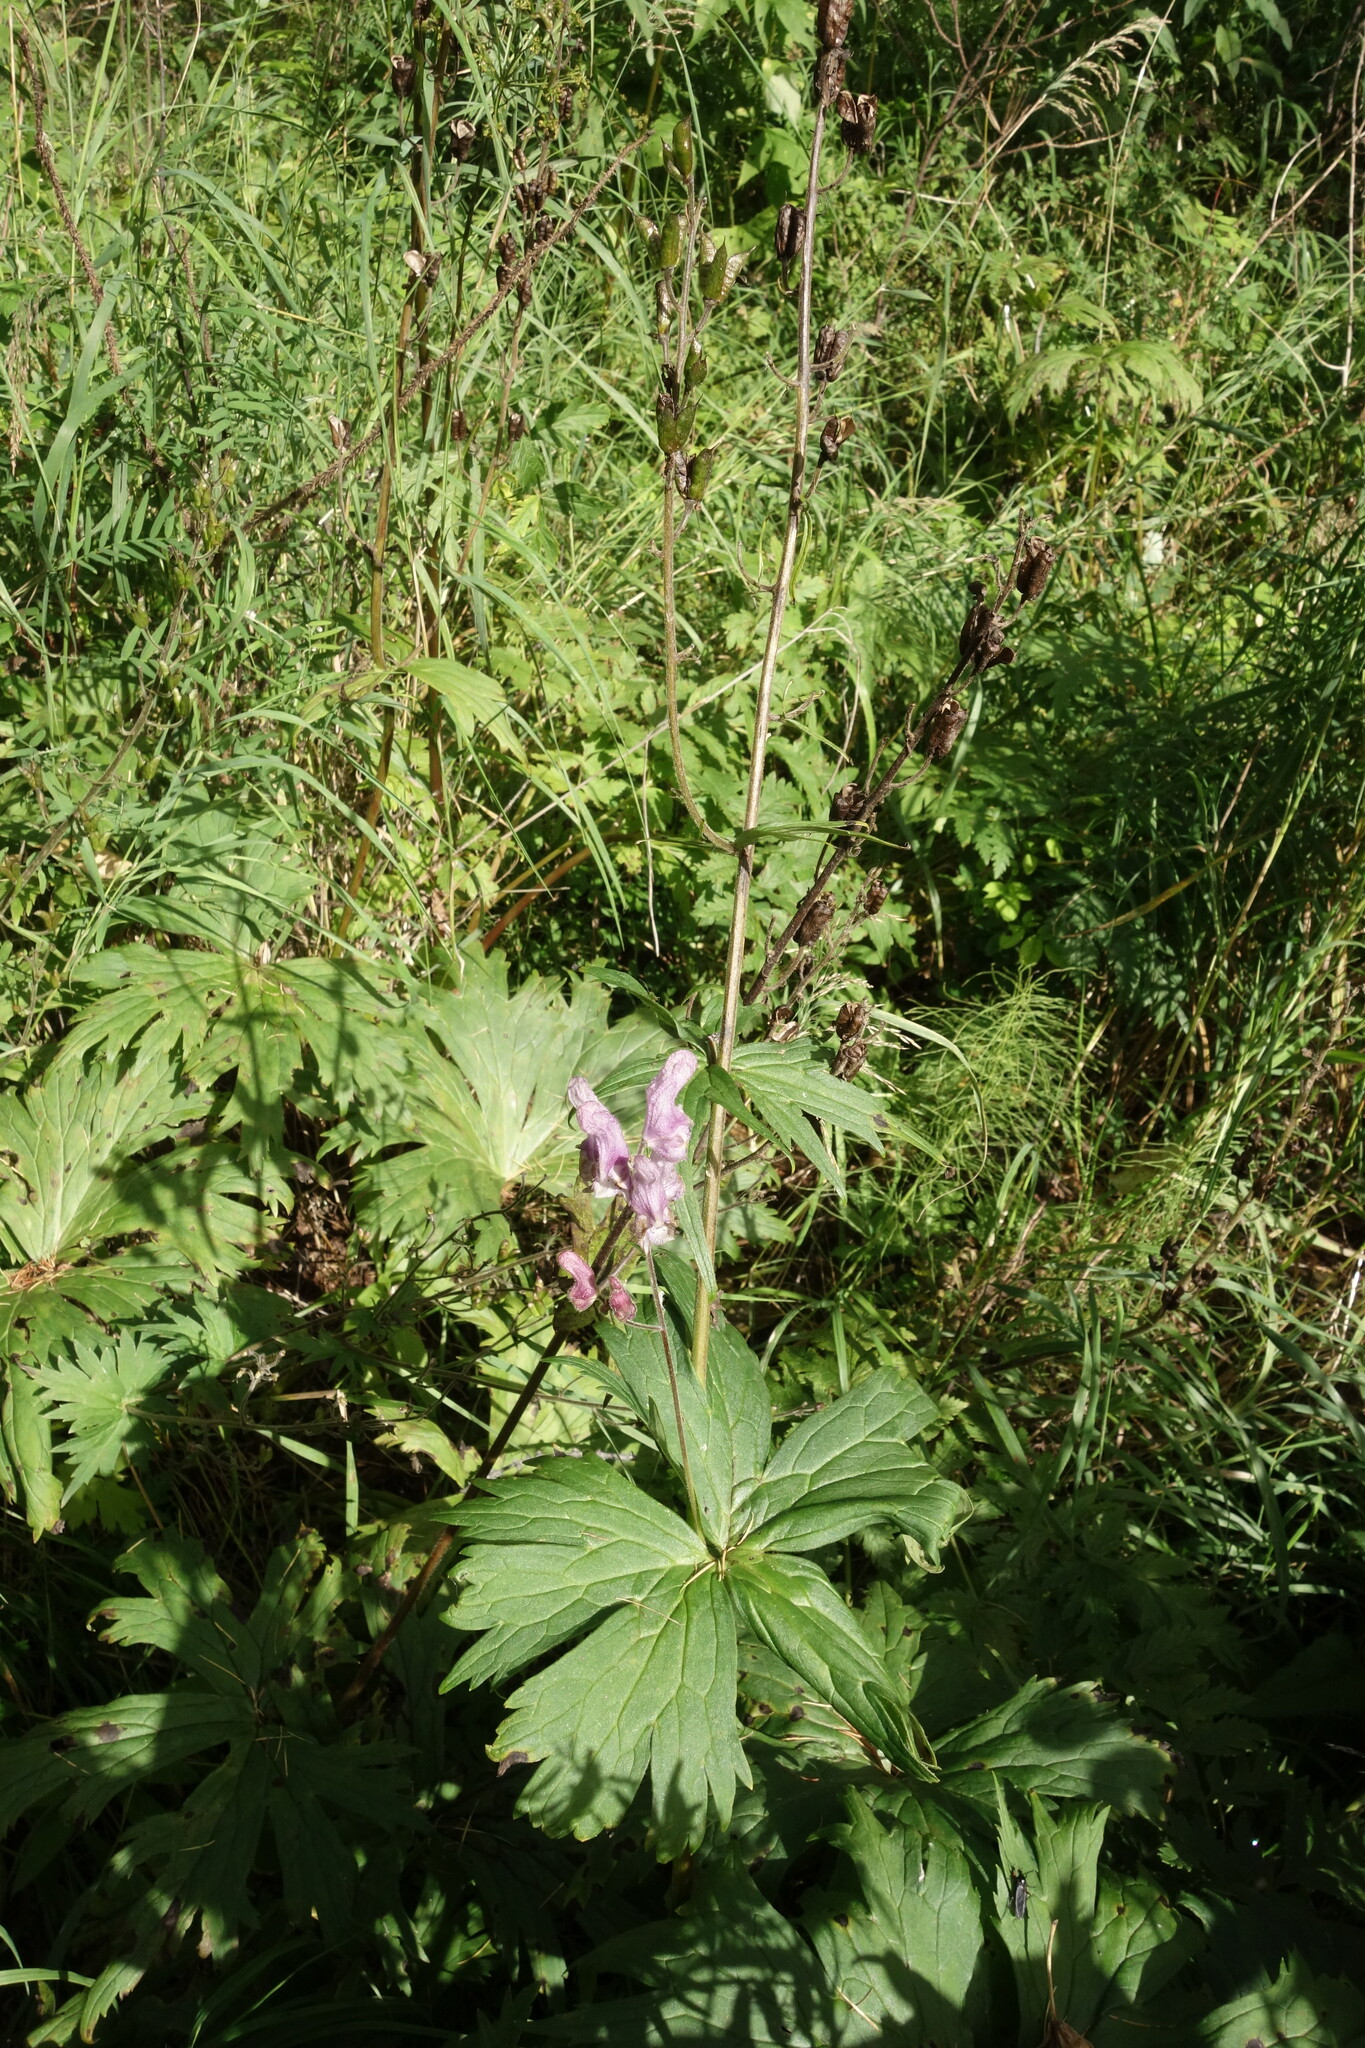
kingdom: Plantae
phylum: Tracheophyta
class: Magnoliopsida
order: Ranunculales
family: Ranunculaceae
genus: Aconitum
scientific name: Aconitum septentrionale
